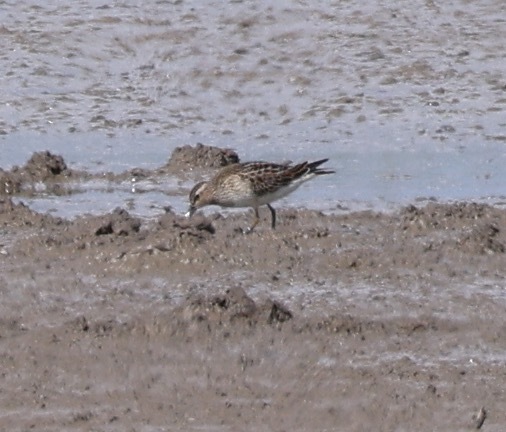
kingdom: Animalia
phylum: Chordata
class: Aves
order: Charadriiformes
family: Scolopacidae
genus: Calidris
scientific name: Calidris melanotos
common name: Pectoral sandpiper
